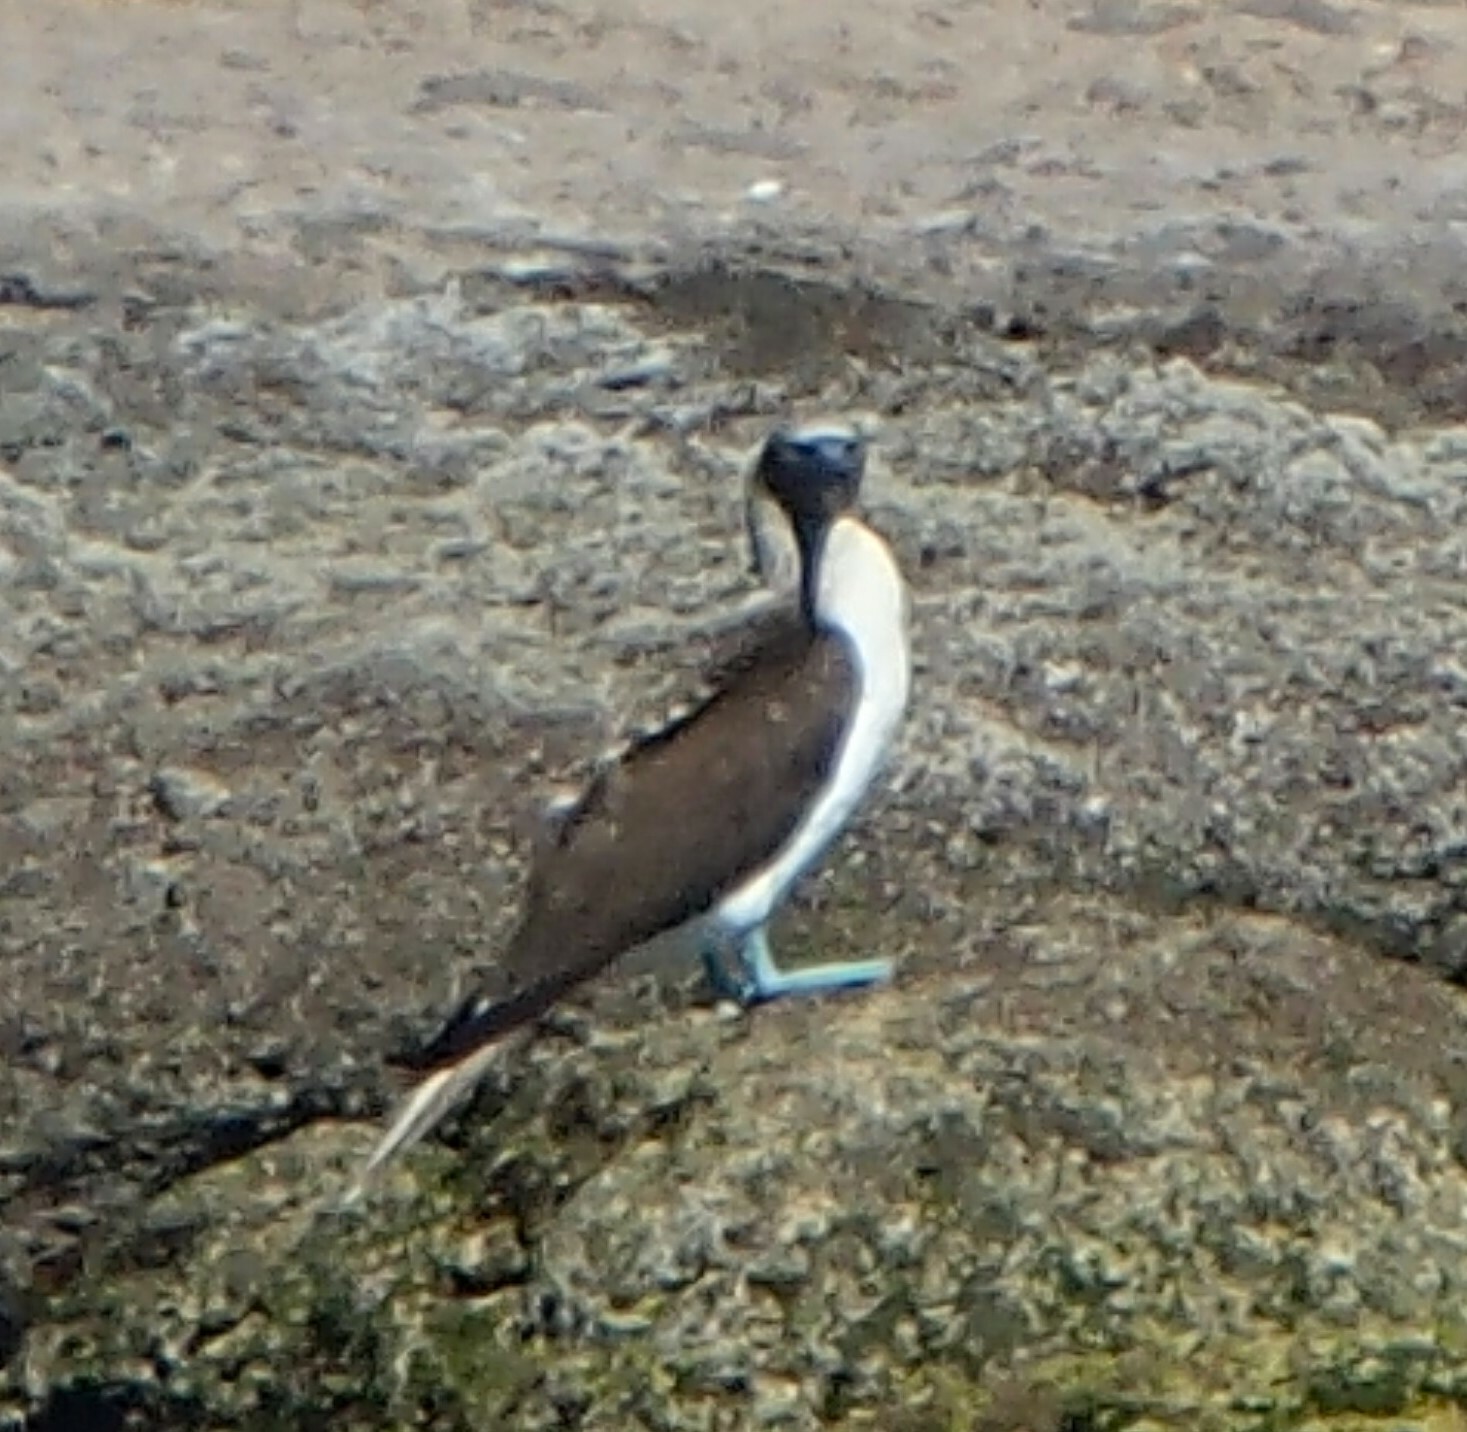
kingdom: Animalia
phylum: Chordata
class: Aves
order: Suliformes
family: Sulidae
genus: Sula
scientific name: Sula nebouxii
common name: Blue-footed booby
